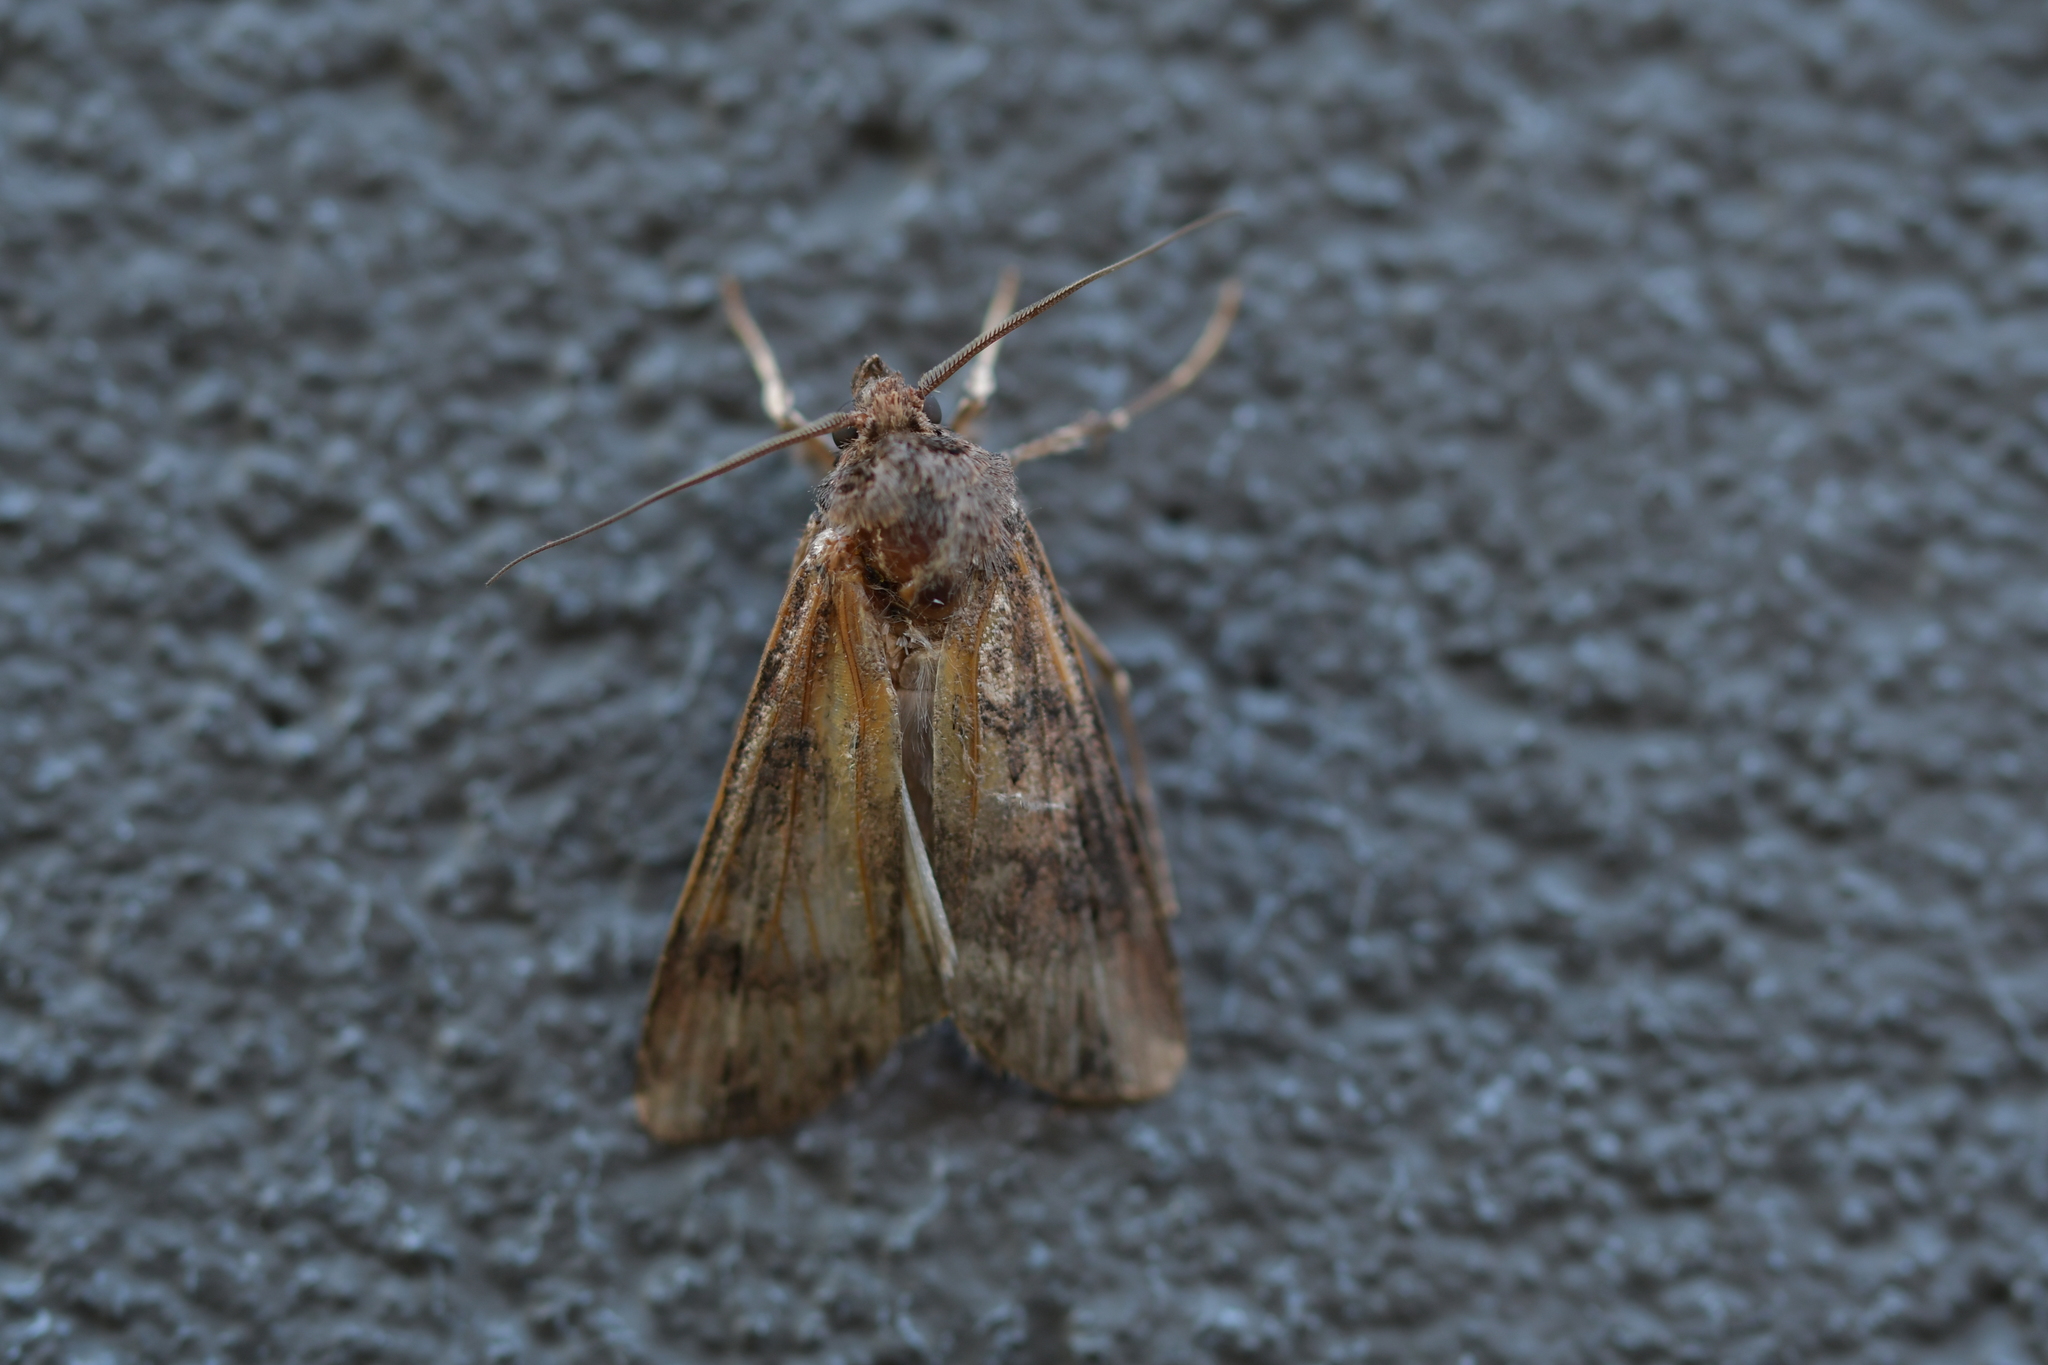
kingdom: Animalia
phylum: Arthropoda
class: Insecta
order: Lepidoptera
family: Noctuidae
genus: Agrotis
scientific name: Agrotis ipsilon
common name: Dark sword-grass
